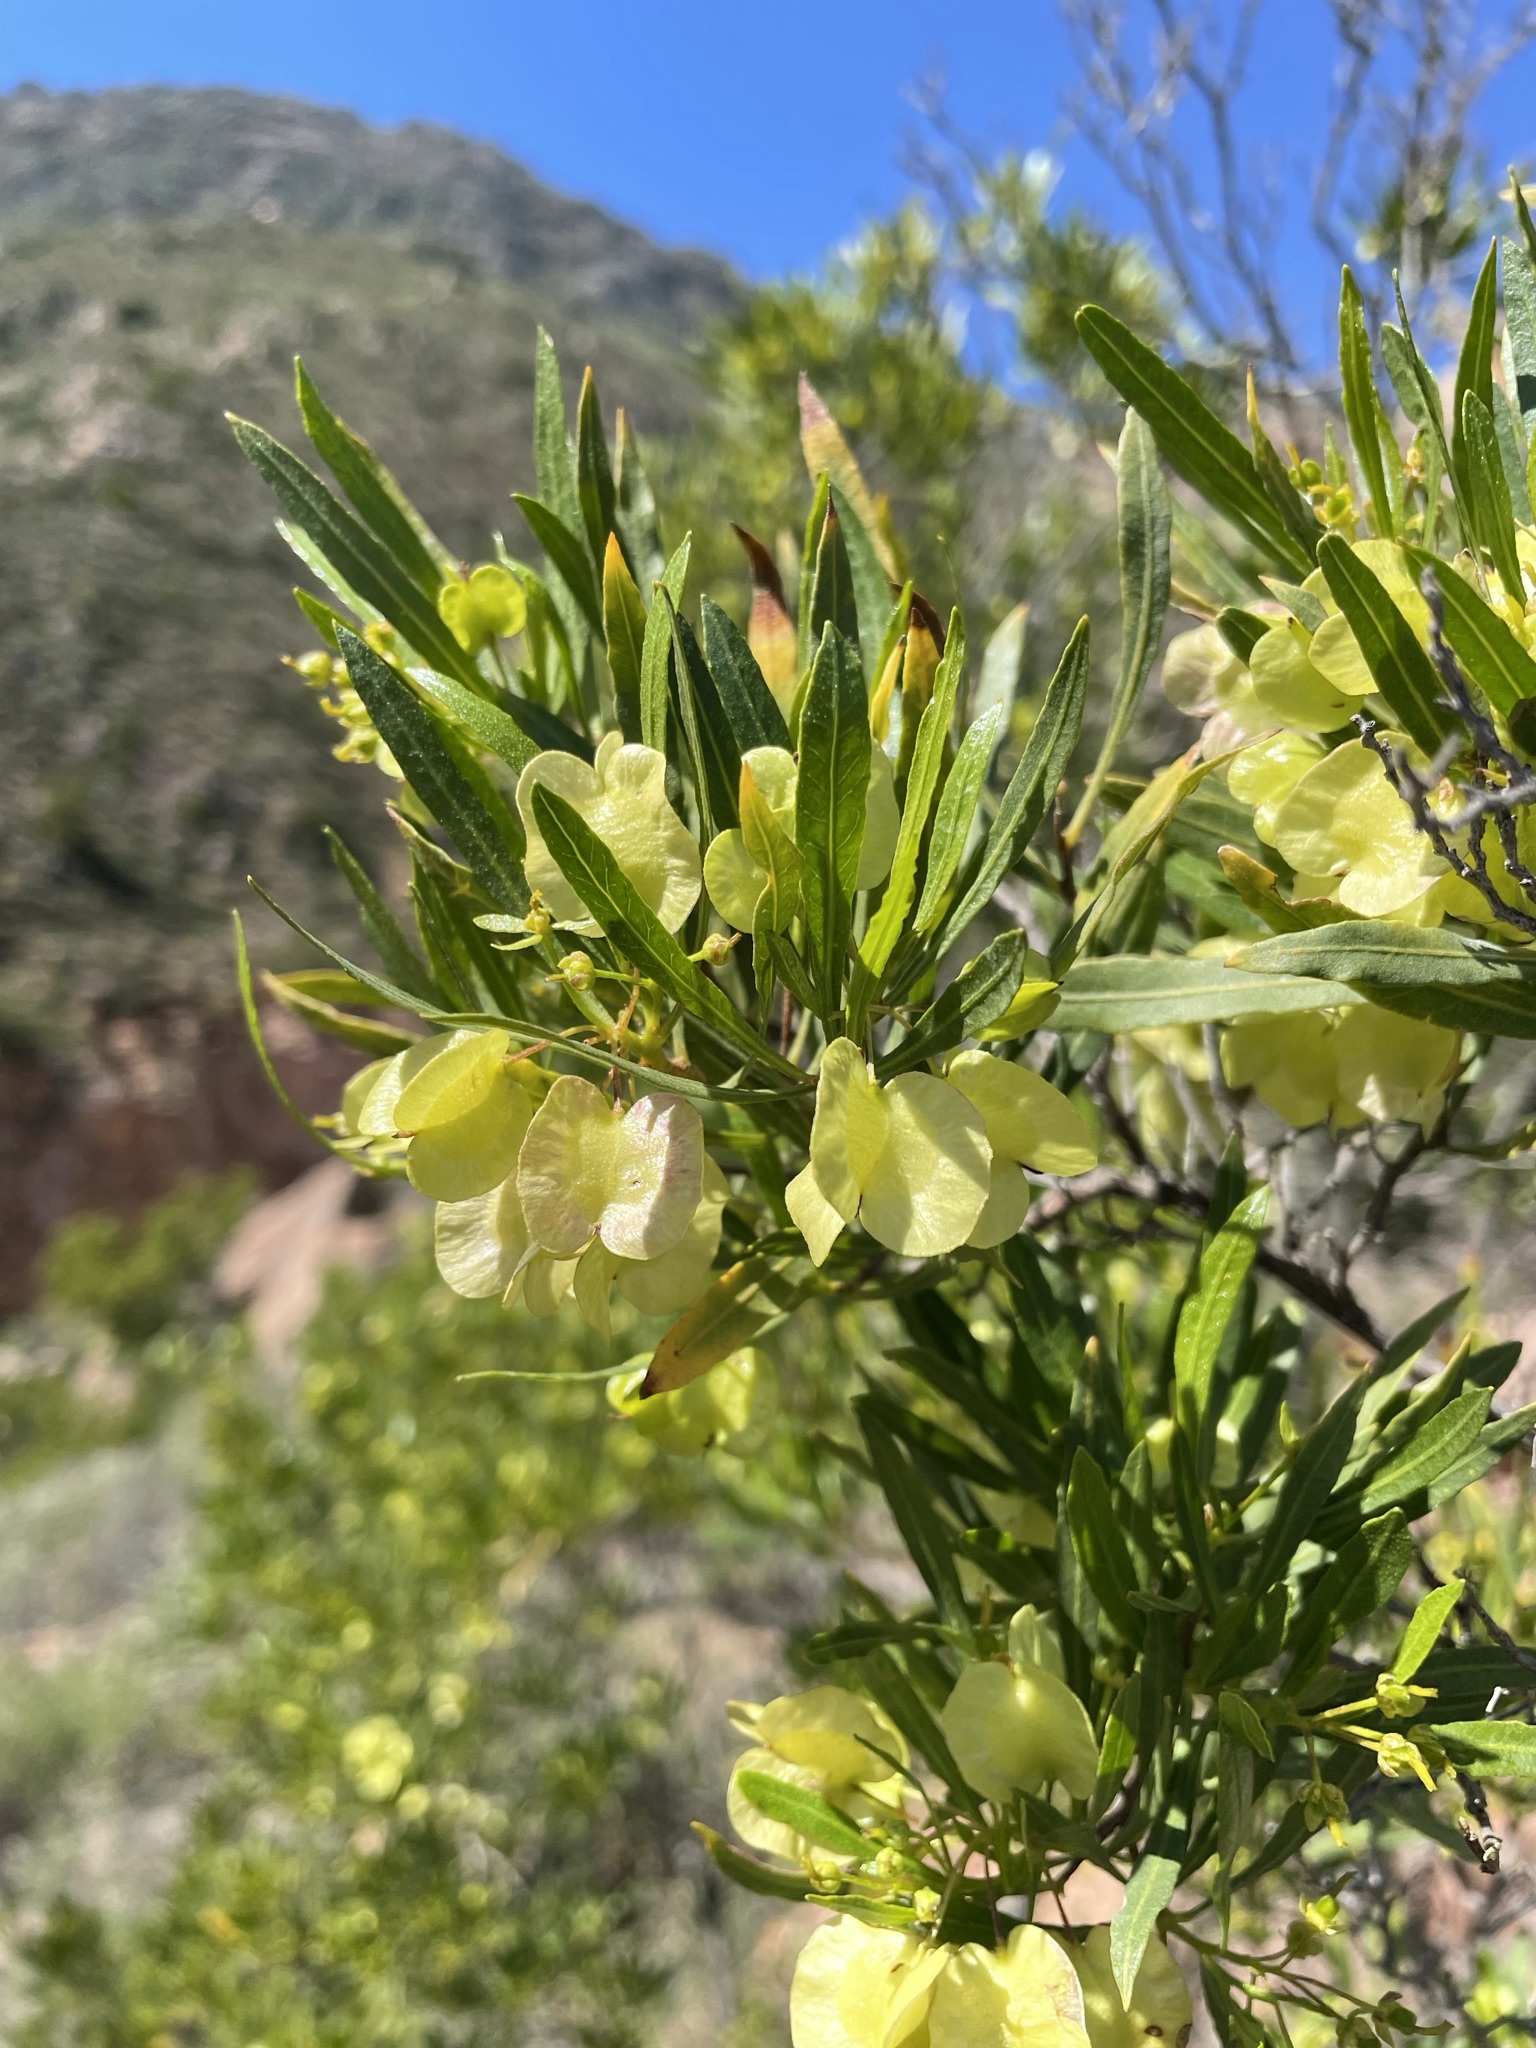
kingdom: Plantae
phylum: Tracheophyta
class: Magnoliopsida
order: Sapindales
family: Sapindaceae
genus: Dodonaea
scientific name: Dodonaea viscosa
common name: Hopbush
